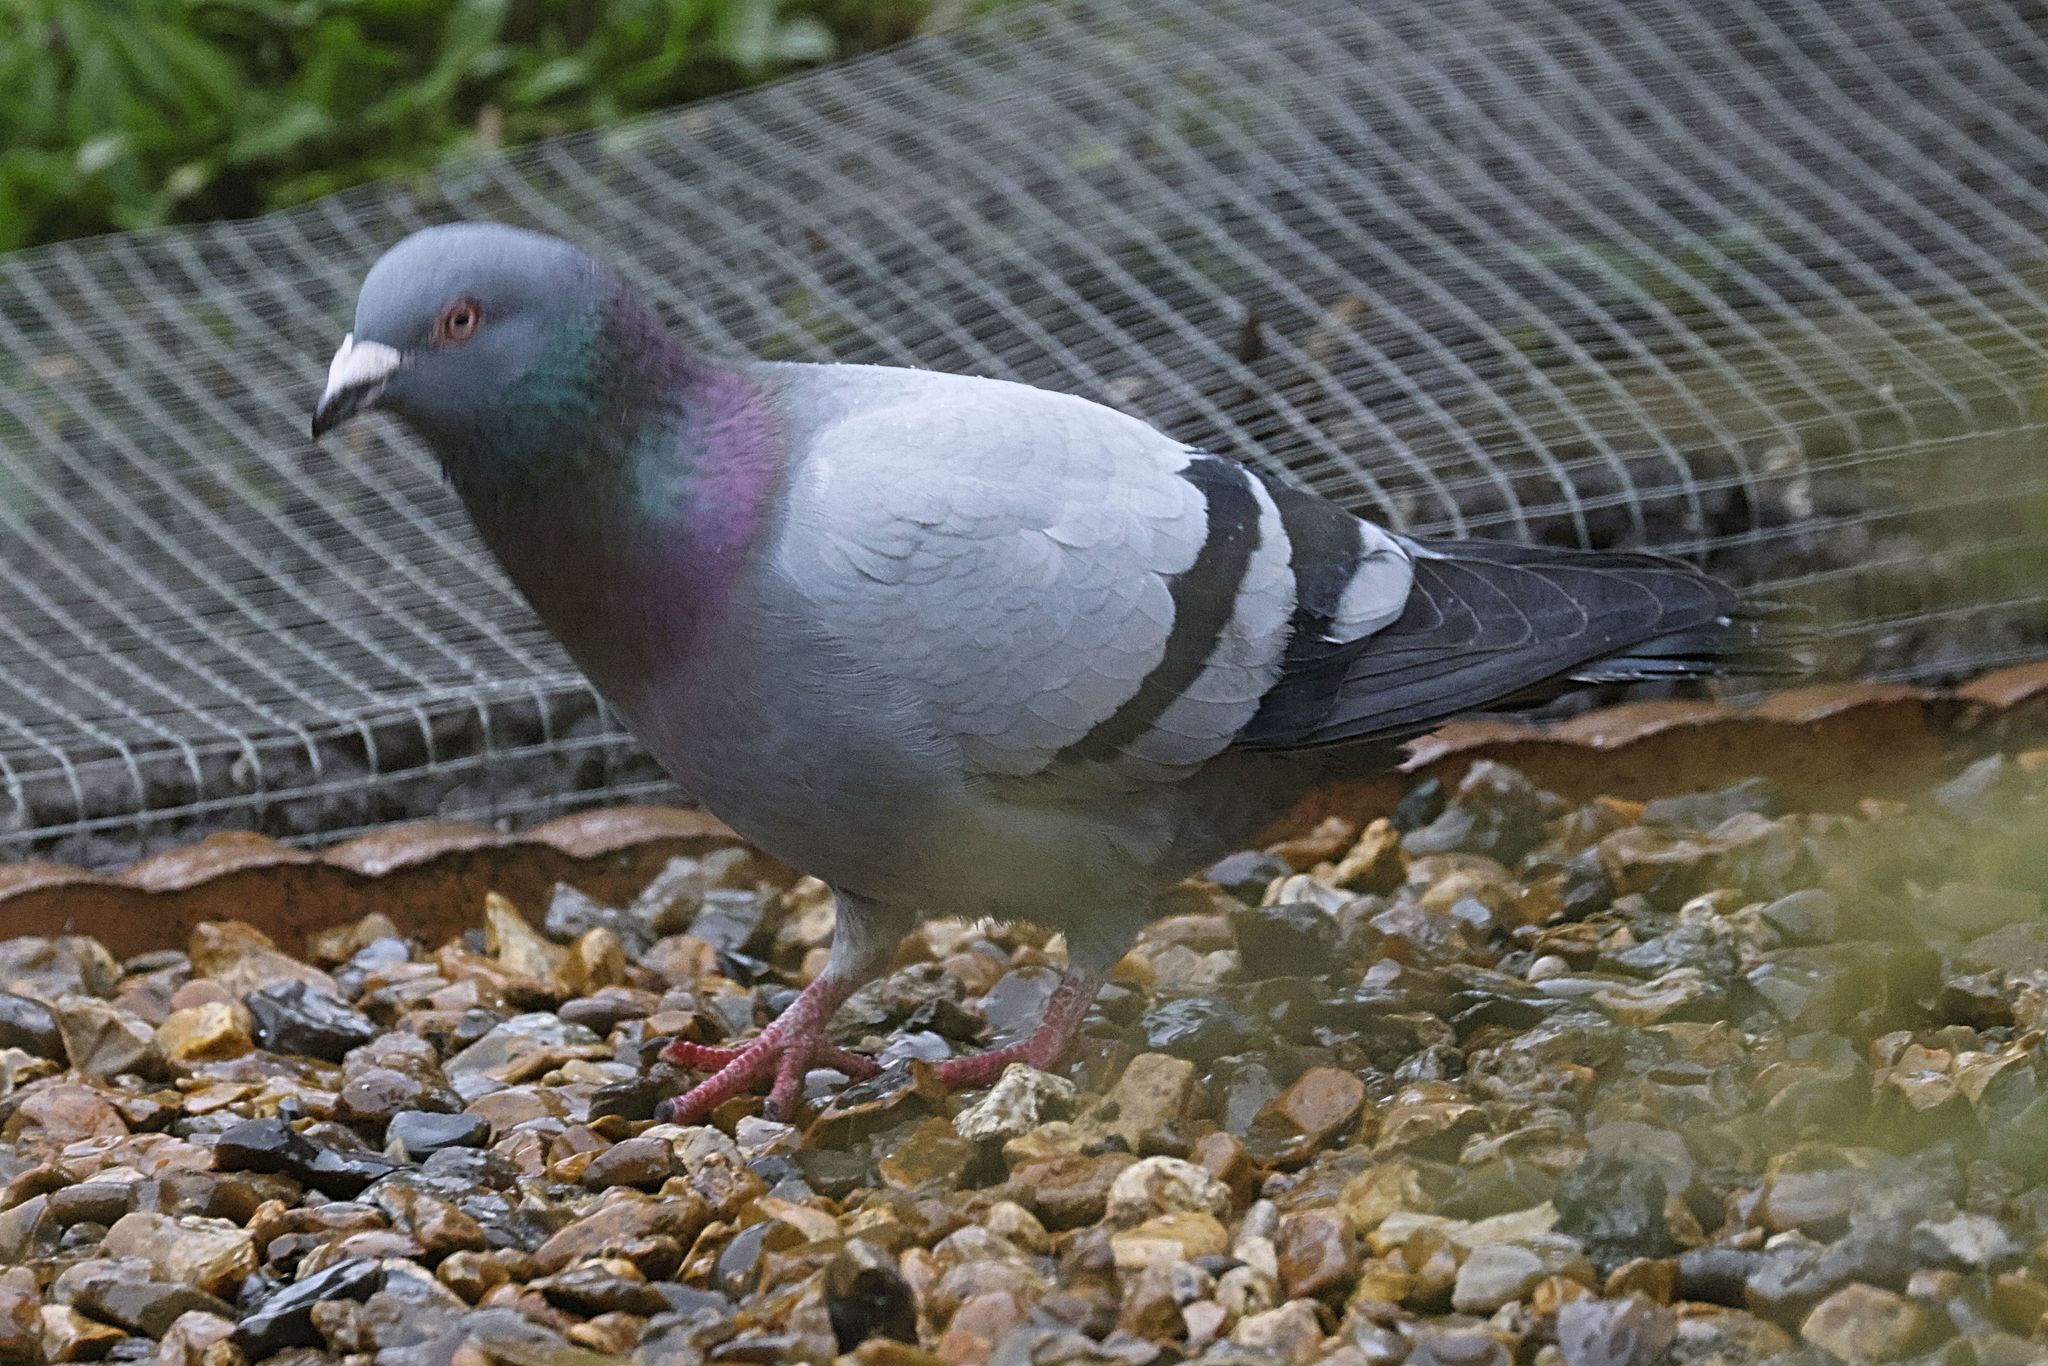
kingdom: Animalia
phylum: Chordata
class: Aves
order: Columbiformes
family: Columbidae
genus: Columba
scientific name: Columba livia
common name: Rock pigeon
